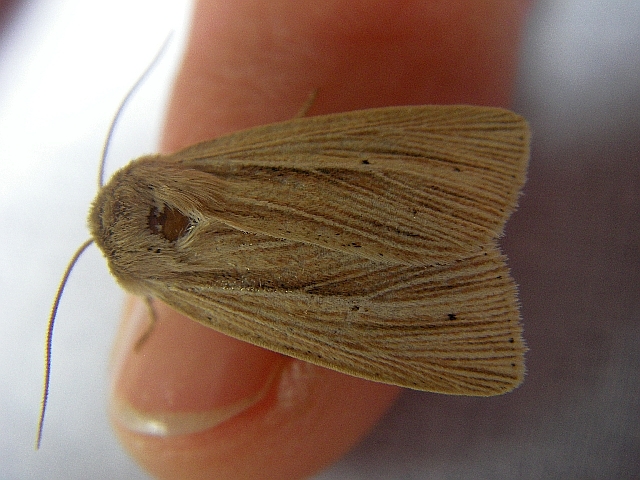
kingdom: Animalia
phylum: Arthropoda
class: Insecta
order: Lepidoptera
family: Noctuidae
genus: Mythimna
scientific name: Mythimna impura
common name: Smoky wainscot
